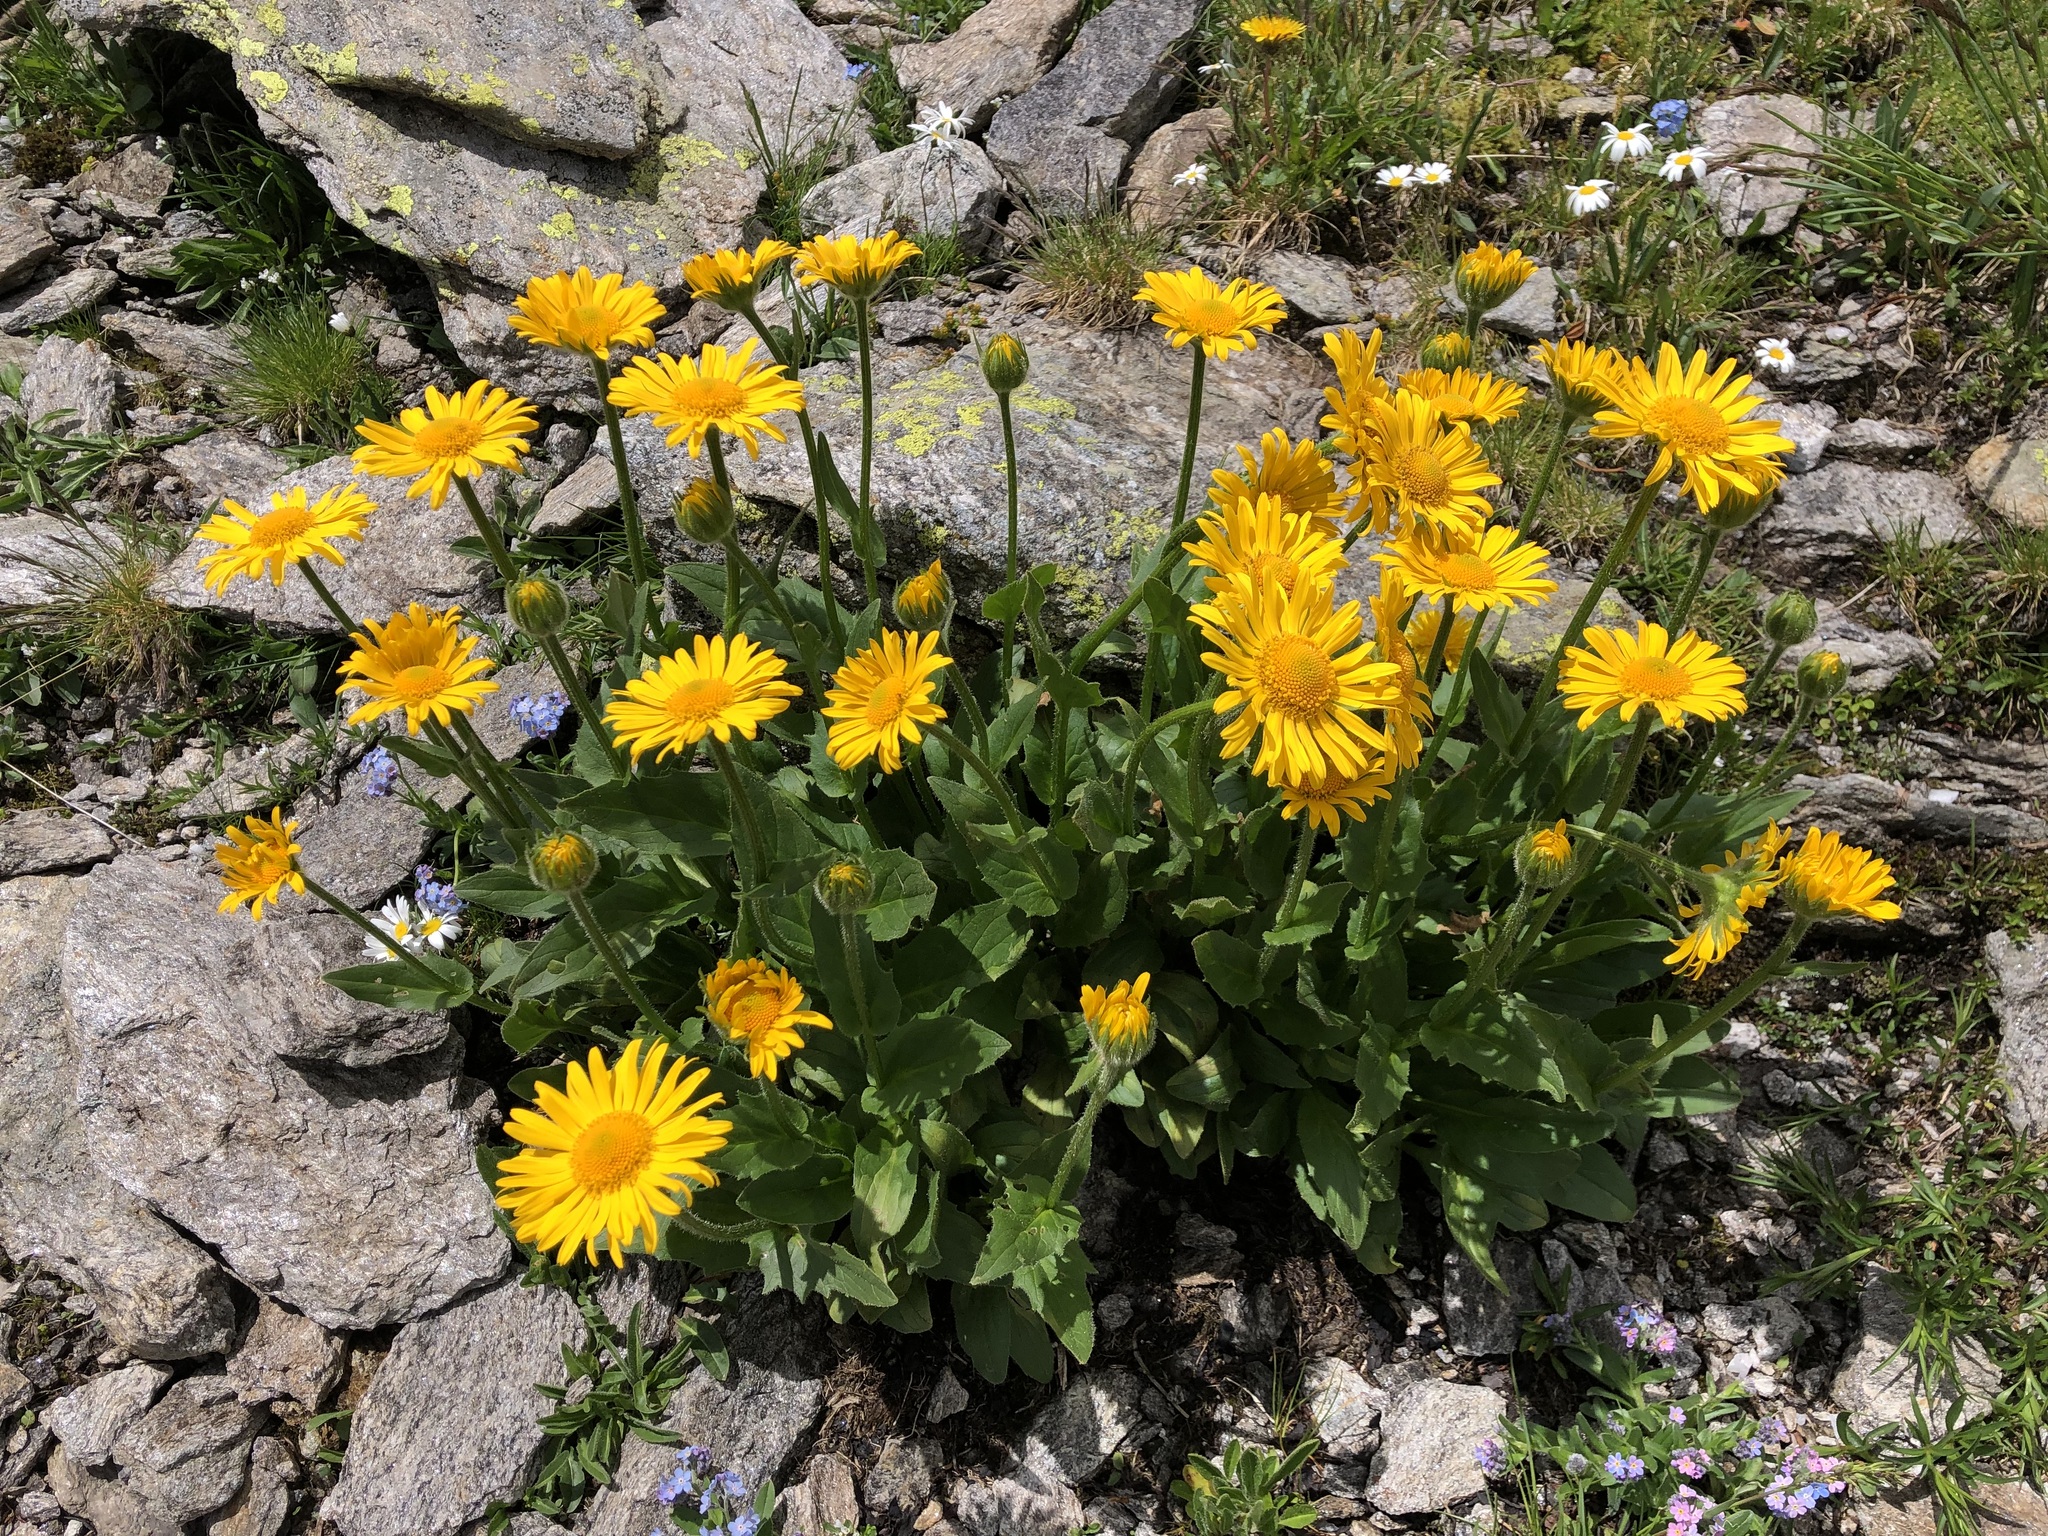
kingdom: Plantae
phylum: Tracheophyta
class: Magnoliopsida
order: Asterales
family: Asteraceae
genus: Doronicum
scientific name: Doronicum grandiflorum
